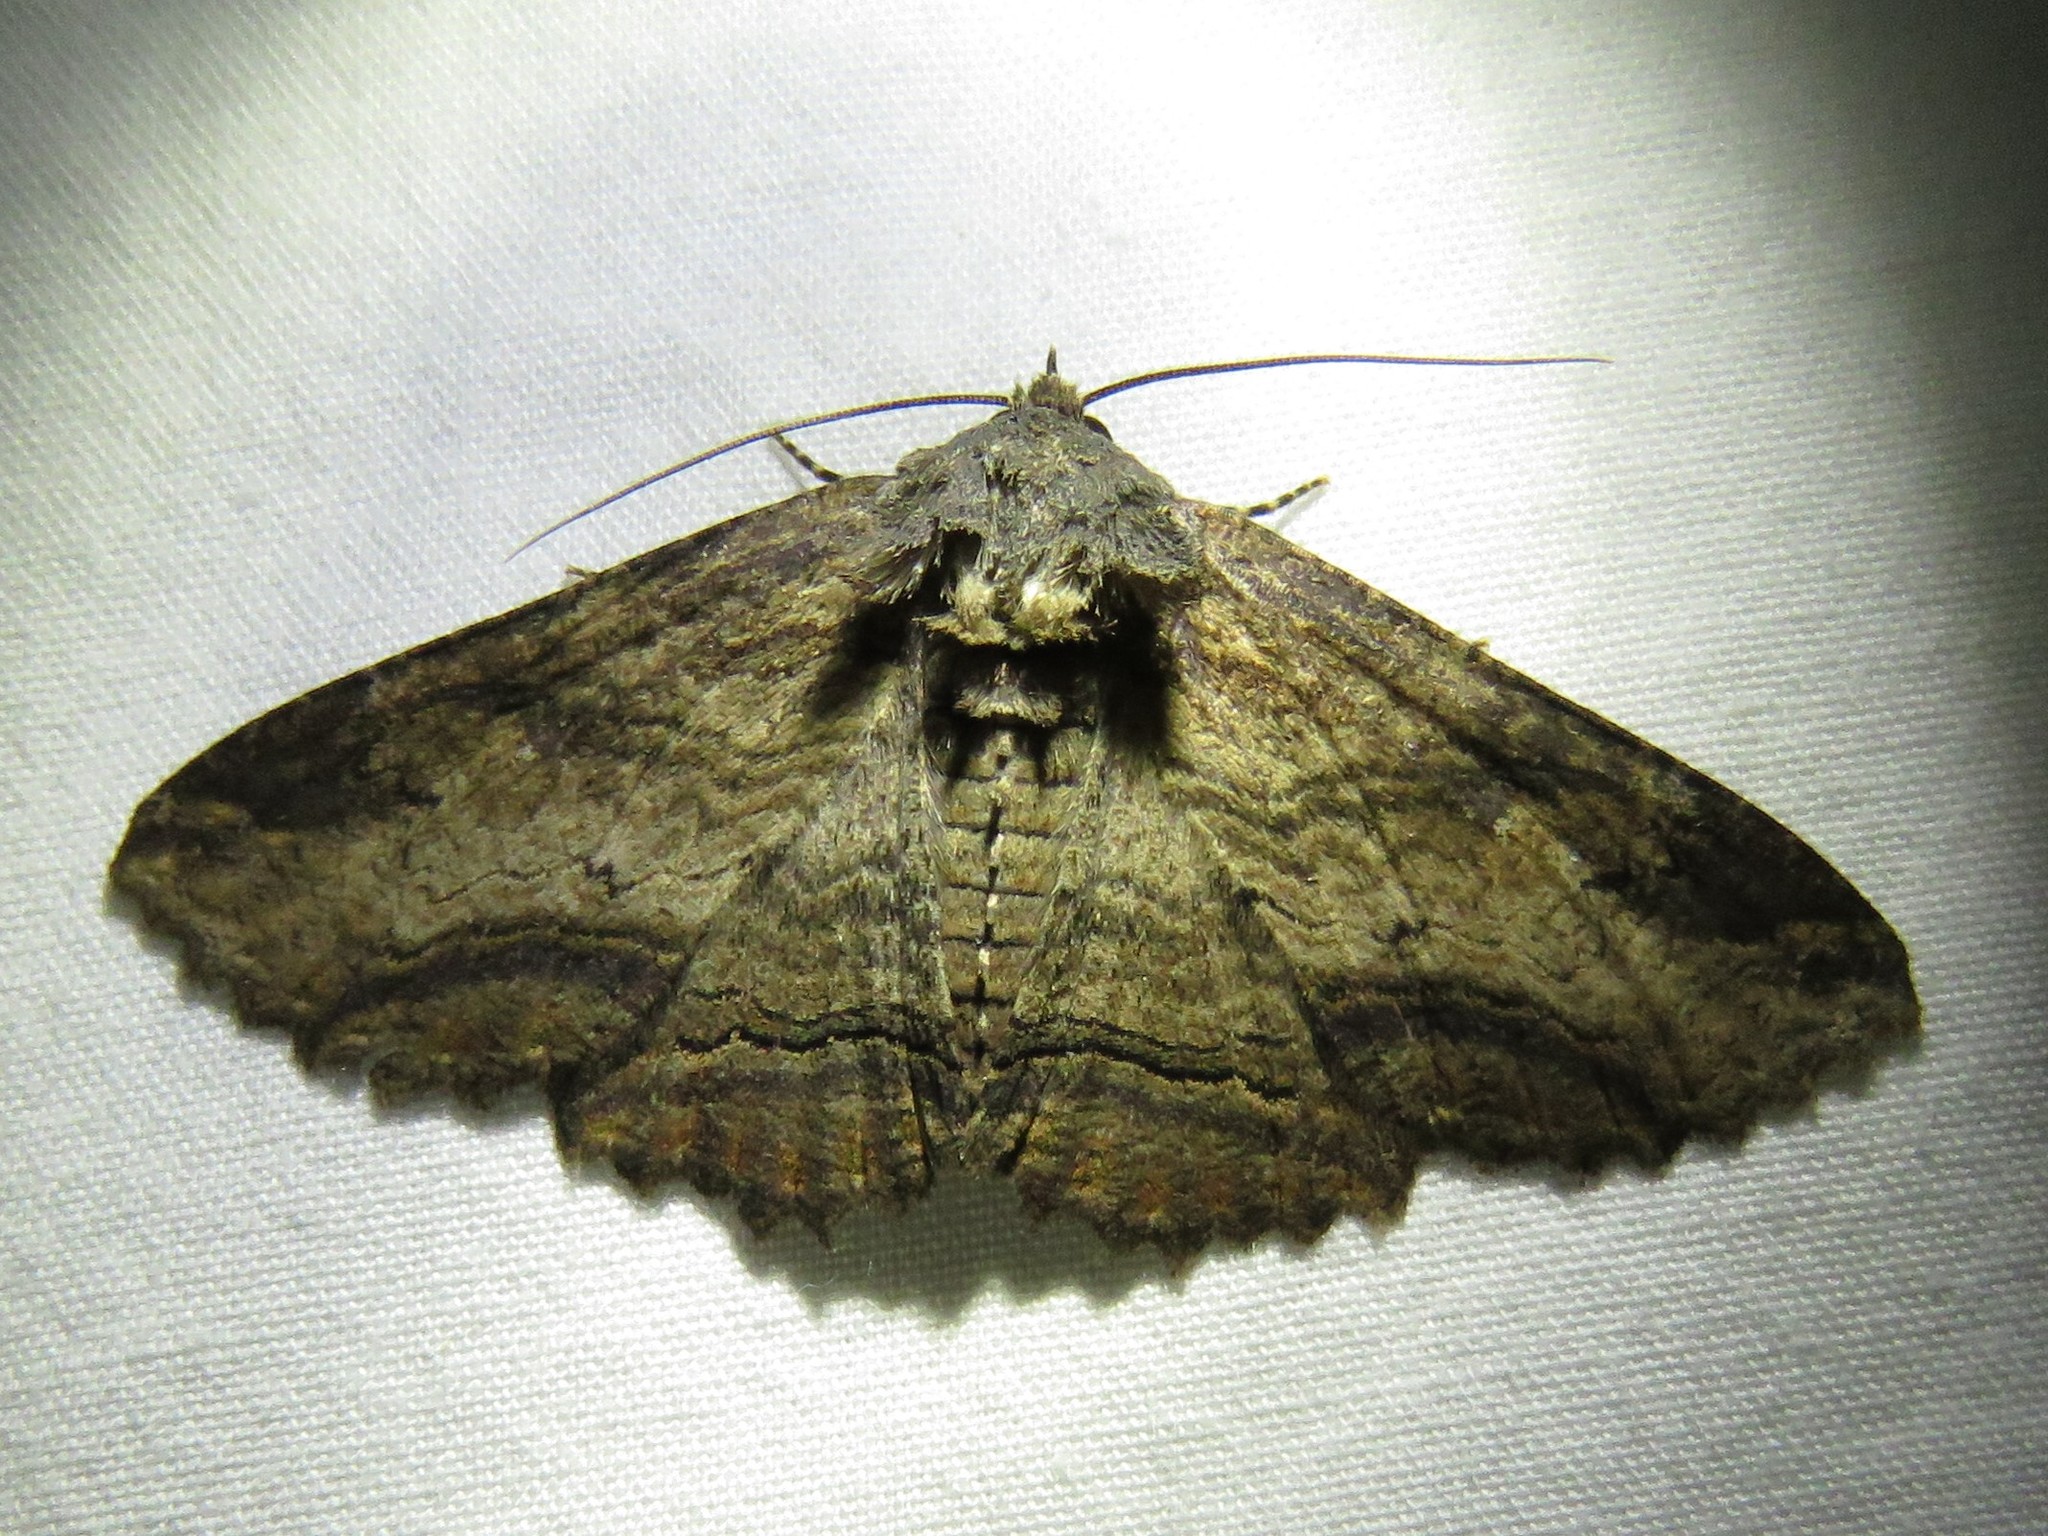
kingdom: Animalia
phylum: Arthropoda
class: Insecta
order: Lepidoptera
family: Erebidae
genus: Zale
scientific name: Zale lunata
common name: Lunate zale moth
